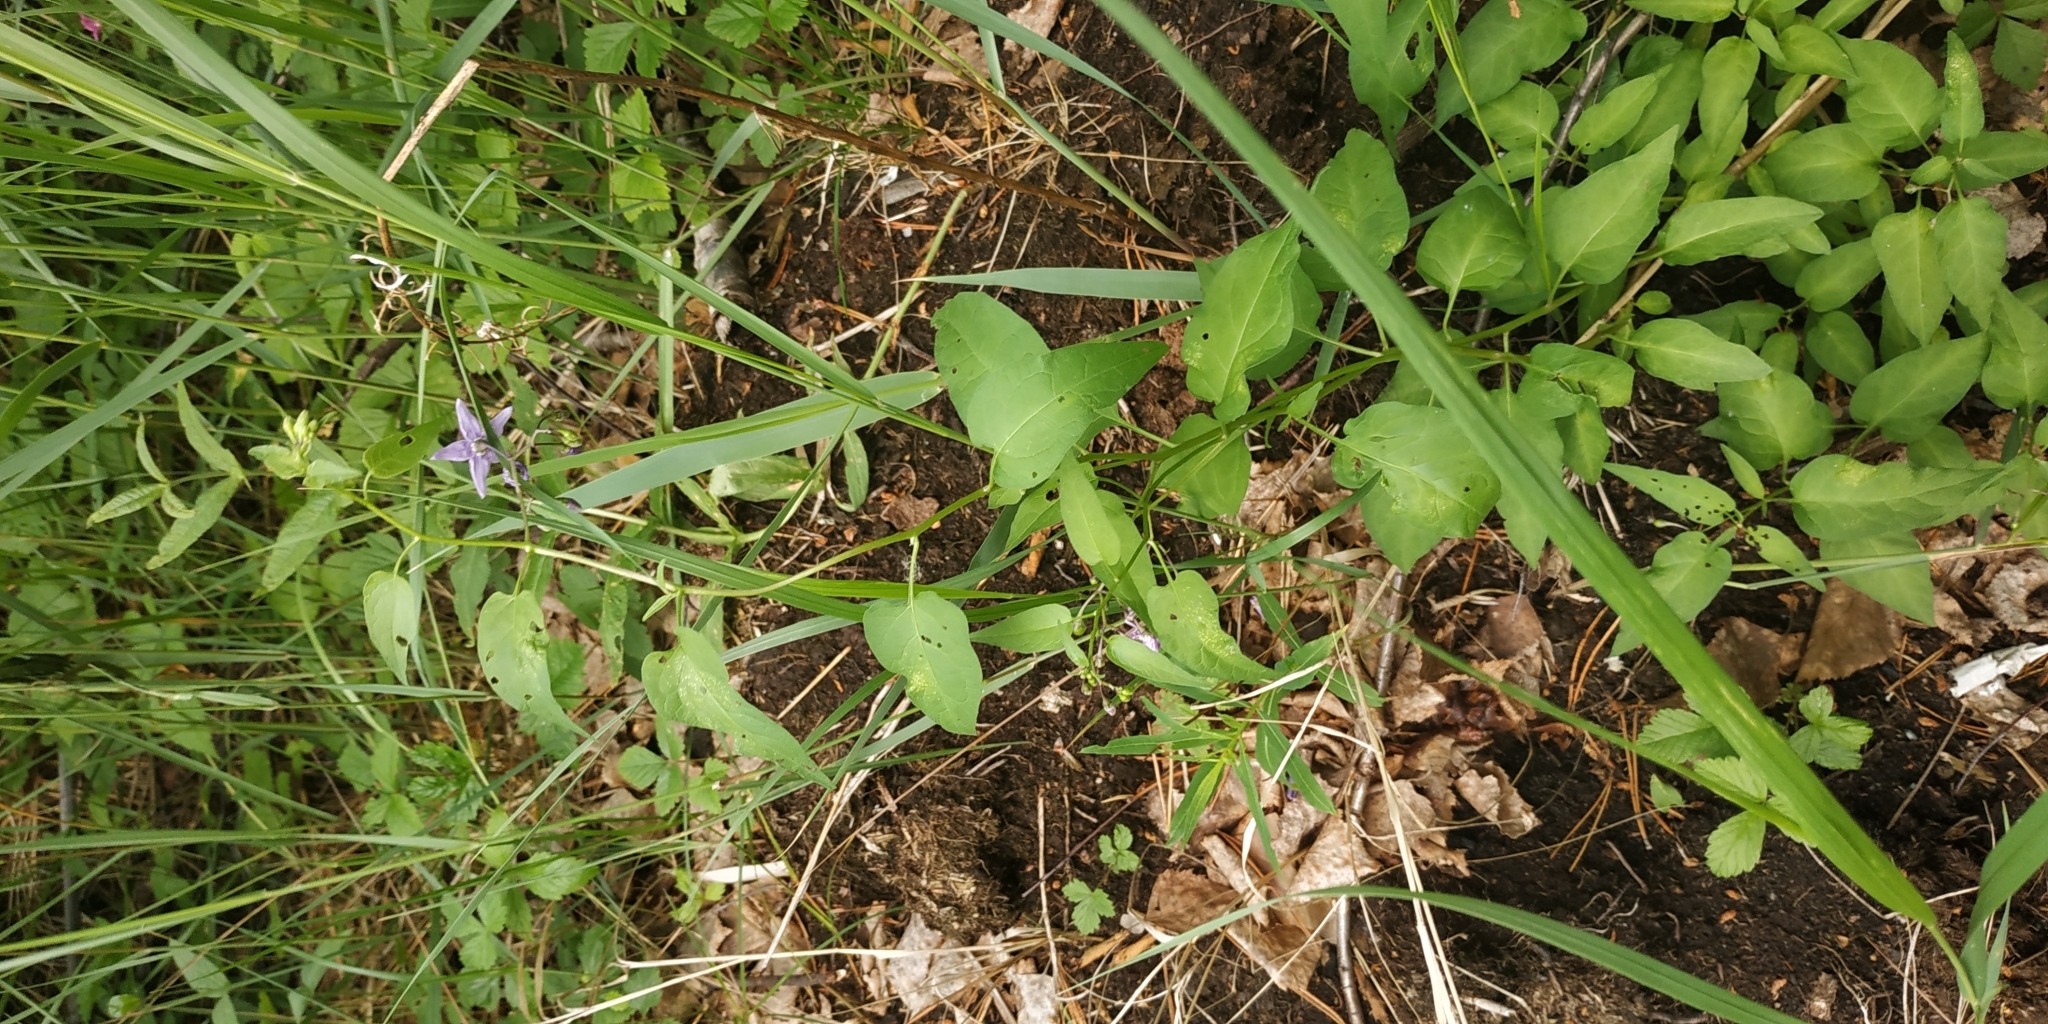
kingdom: Plantae
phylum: Tracheophyta
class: Magnoliopsida
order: Solanales
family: Solanaceae
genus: Solanum
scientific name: Solanum dulcamara
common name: Climbing nightshade
